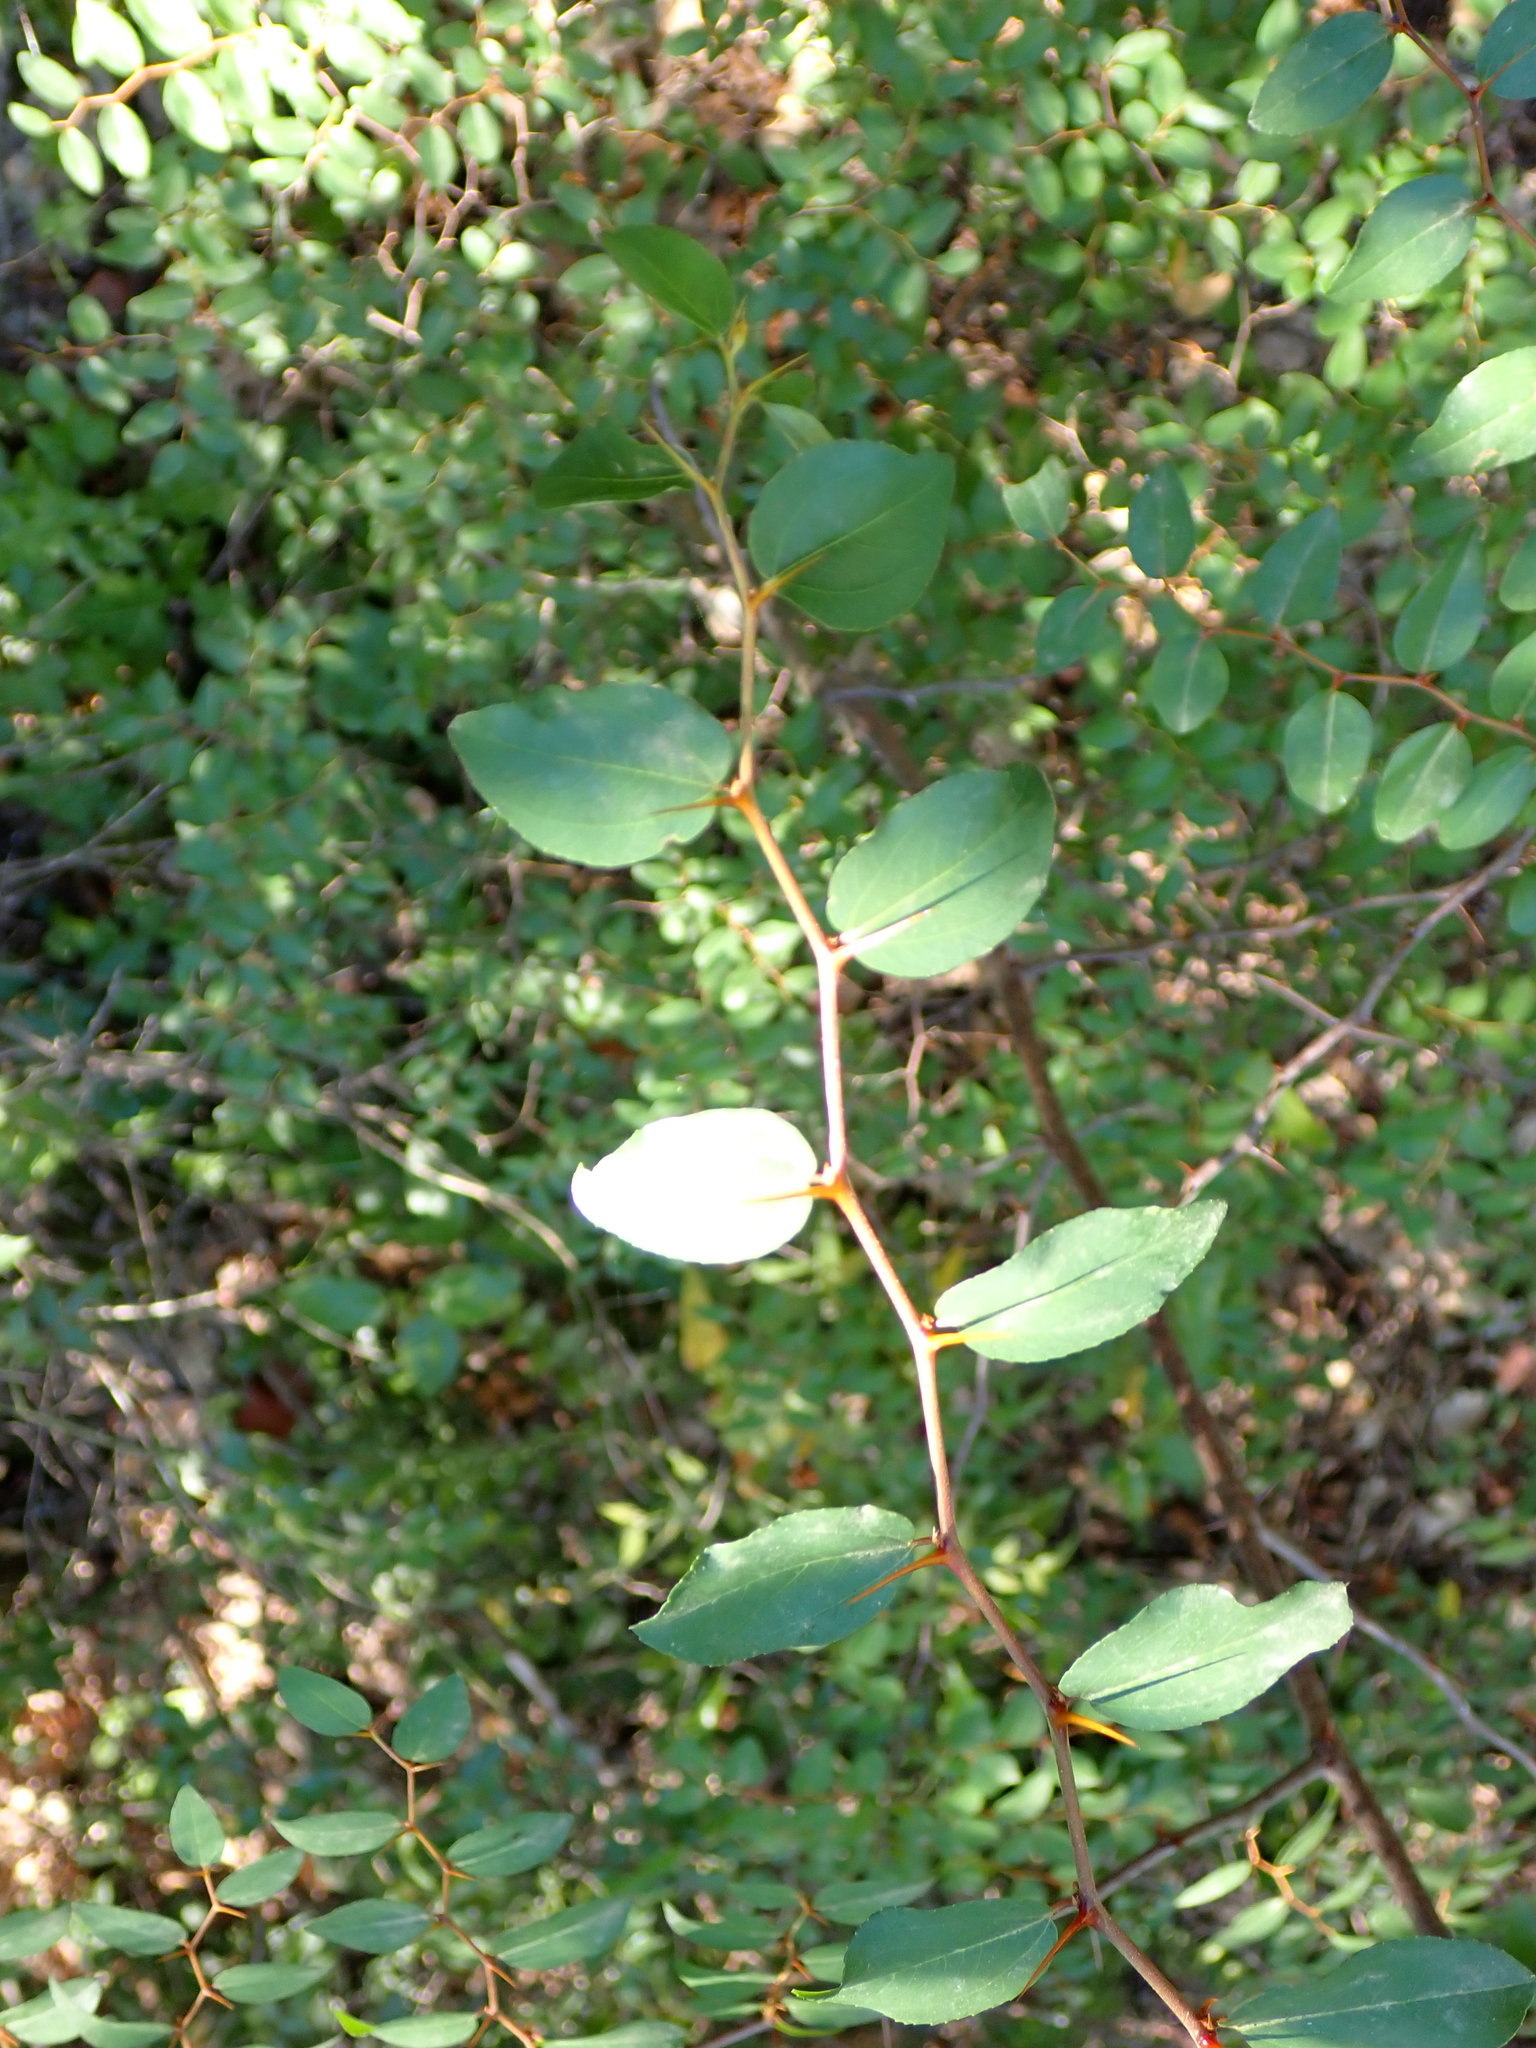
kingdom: Plantae
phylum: Tracheophyta
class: Magnoliopsida
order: Rosales
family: Rhamnaceae
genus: Paliurus
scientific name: Paliurus spina-christi
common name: Jeruselem thorn
